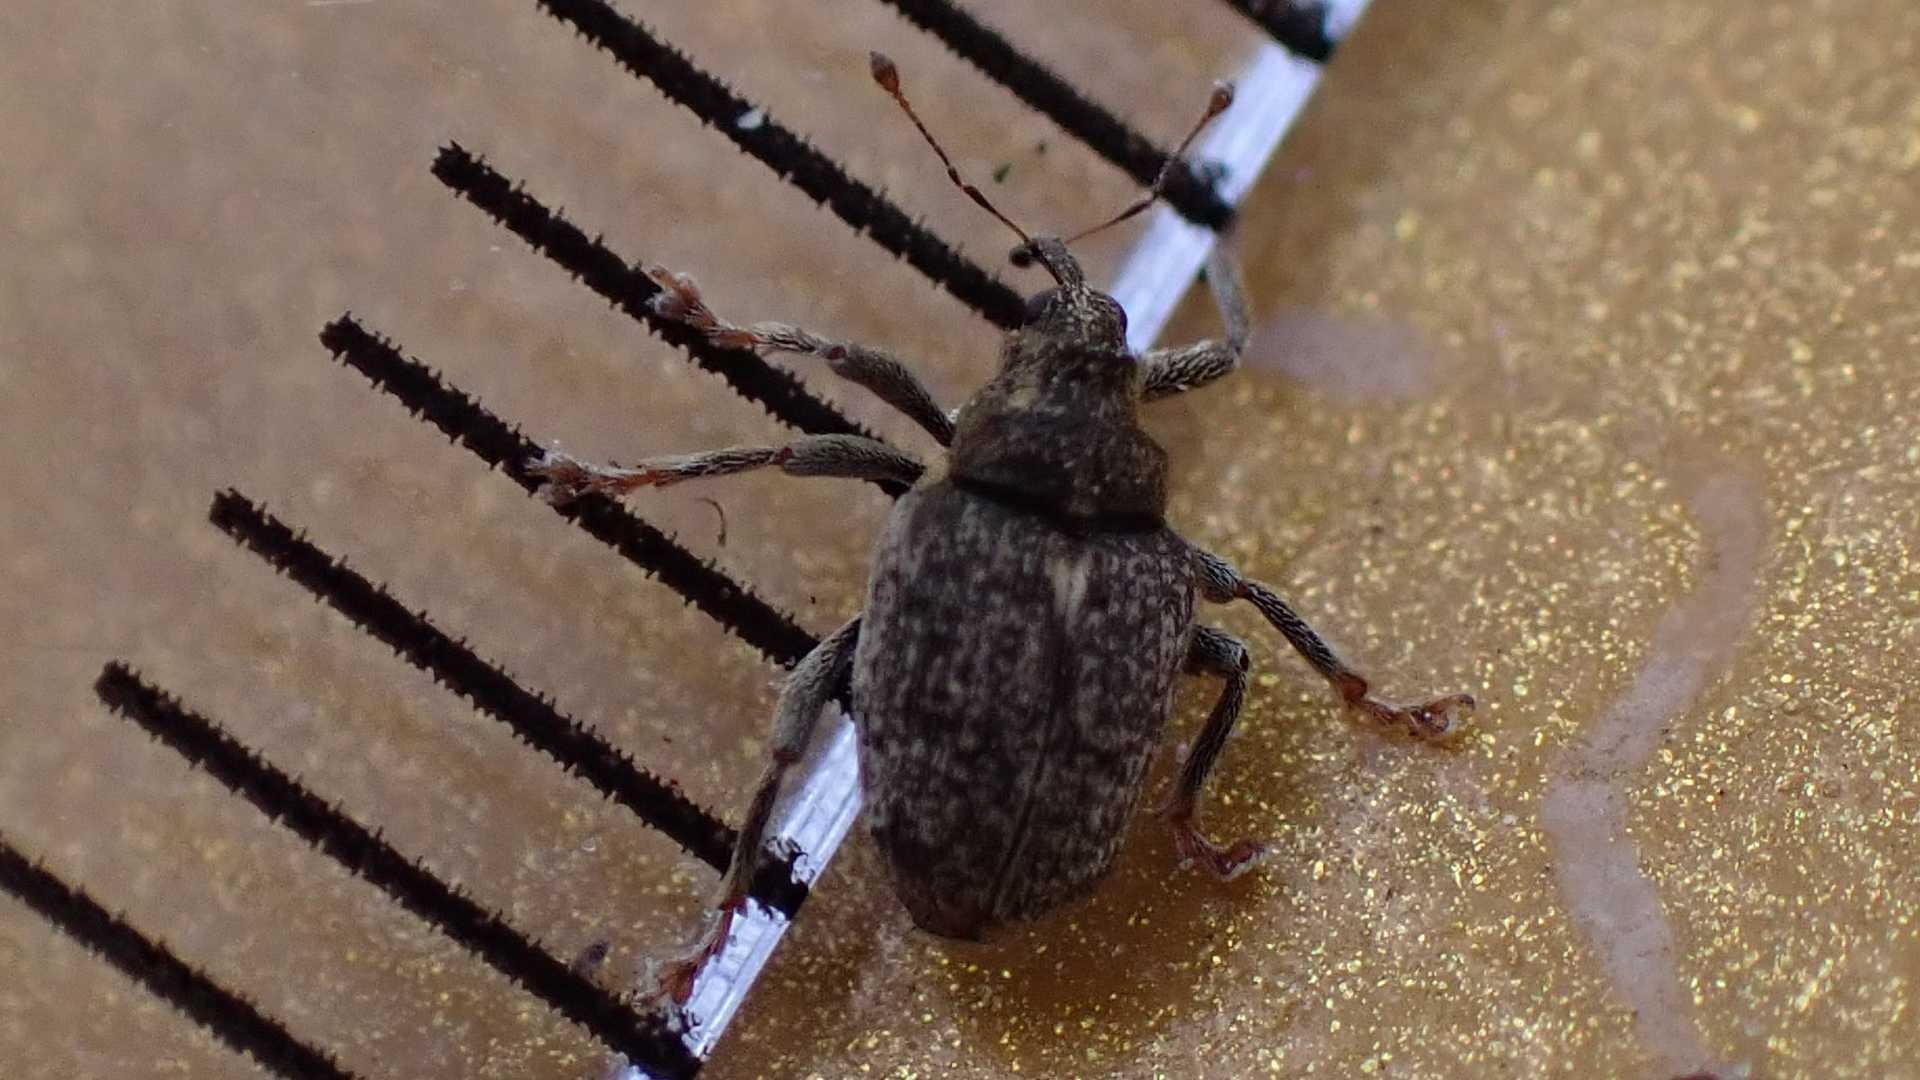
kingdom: Animalia
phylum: Arthropoda
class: Insecta
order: Coleoptera
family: Curculionidae
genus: Ceutorhynchus
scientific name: Ceutorhynchus pallidactylus
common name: Cabbage stem weavil
